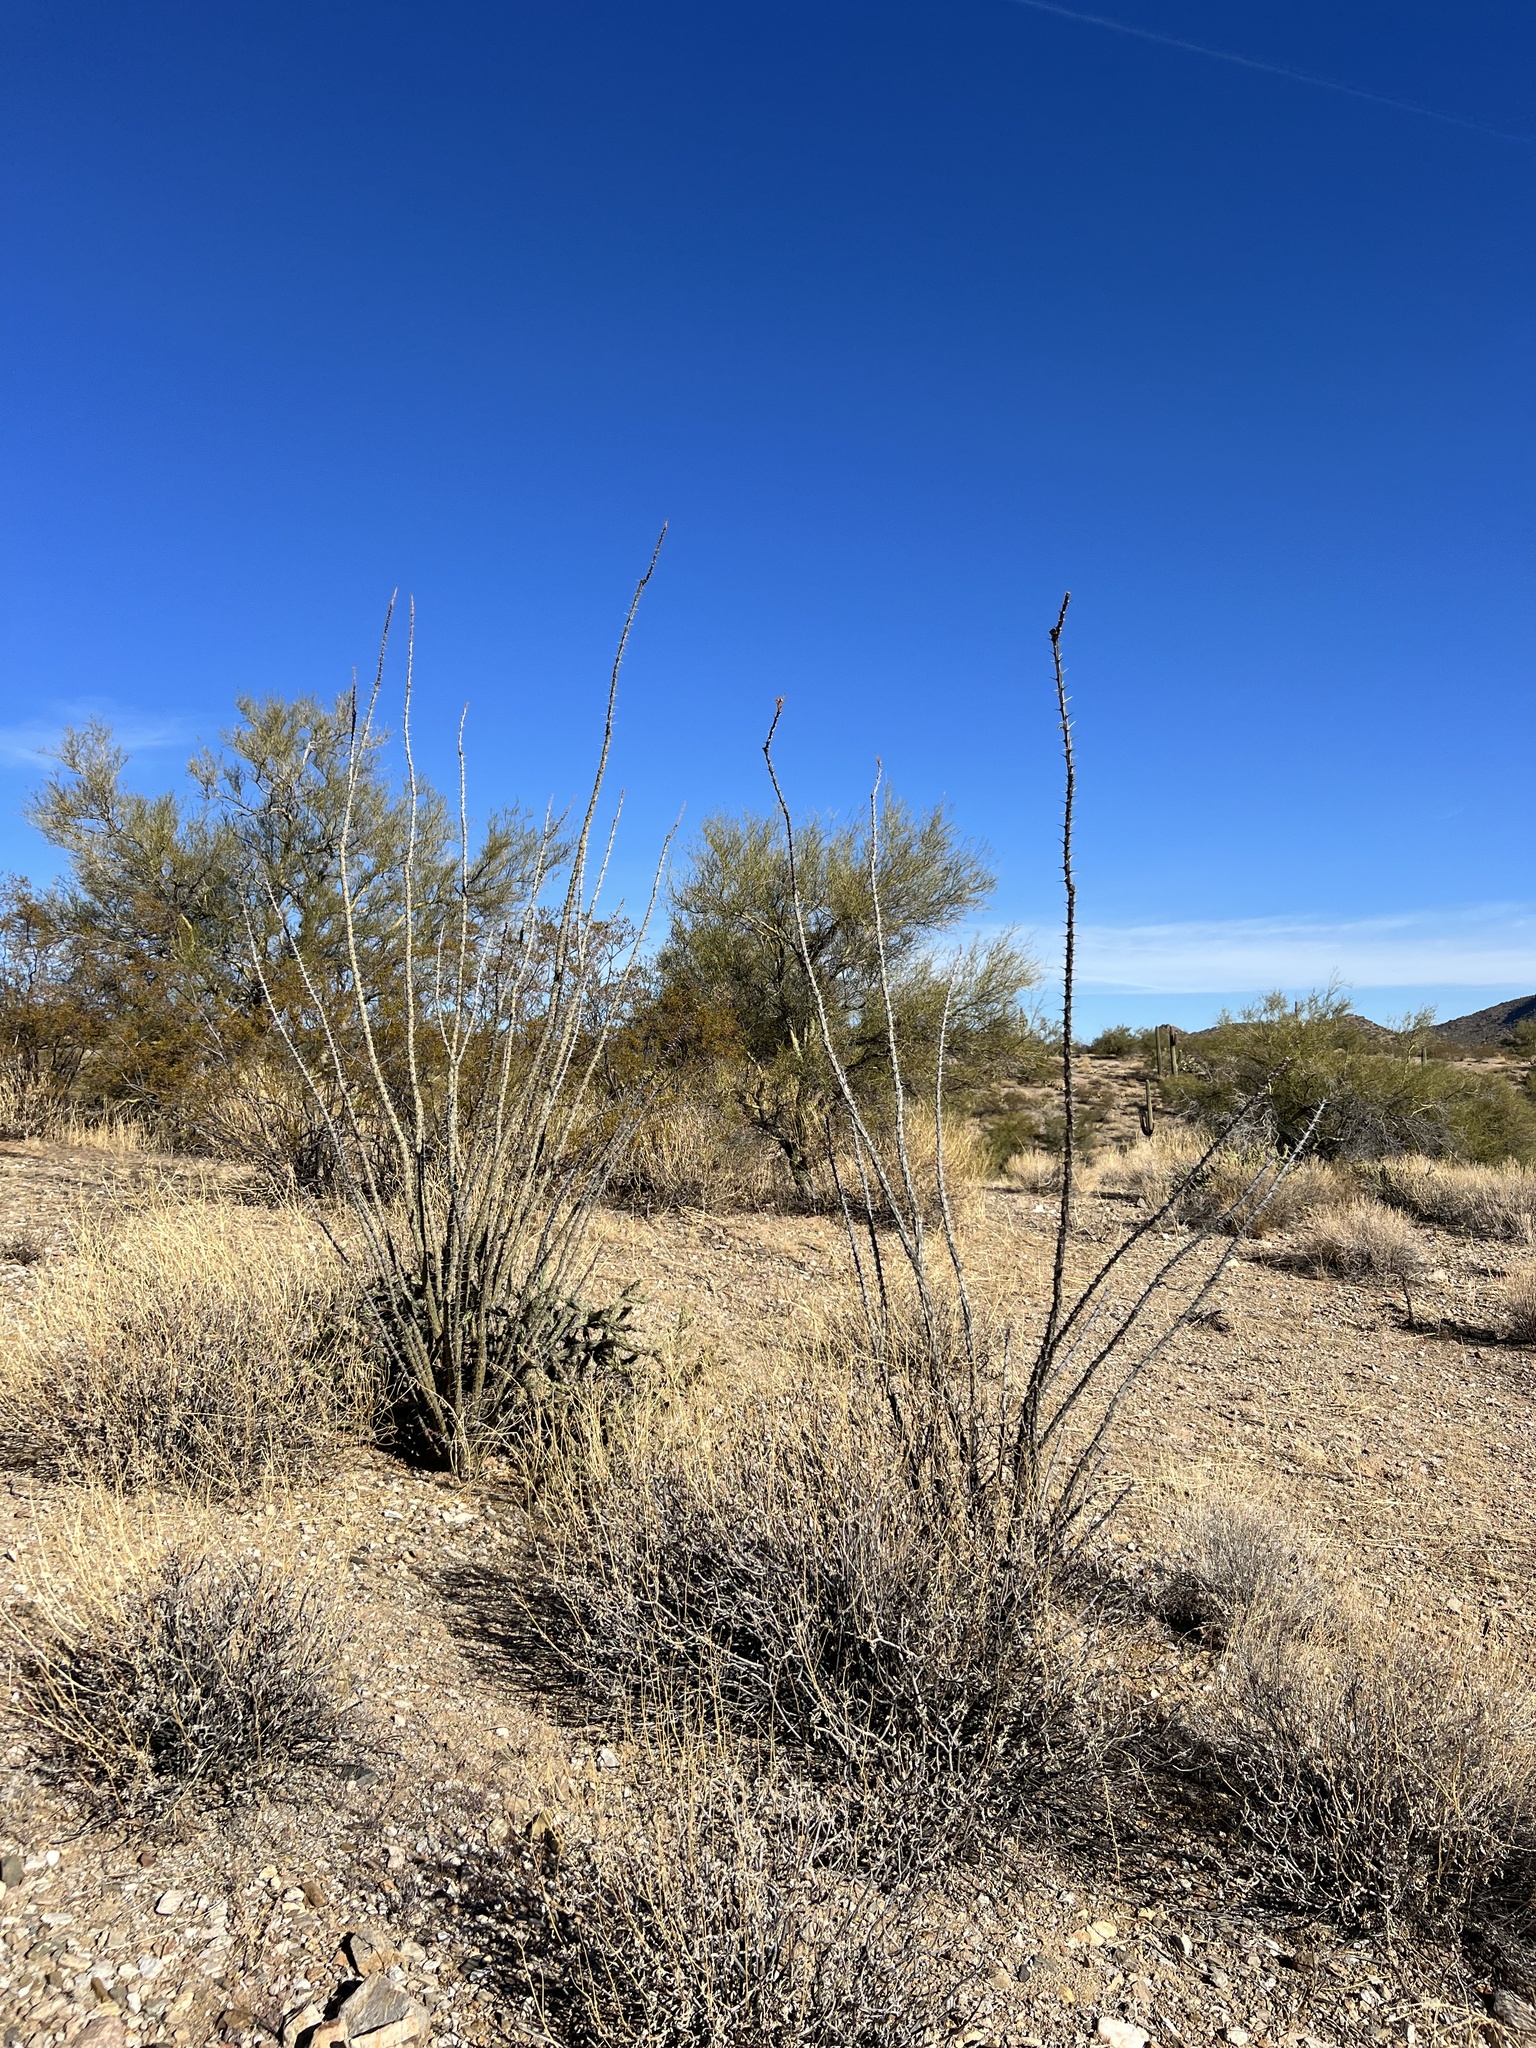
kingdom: Plantae
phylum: Tracheophyta
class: Magnoliopsida
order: Ericales
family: Fouquieriaceae
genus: Fouquieria
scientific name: Fouquieria splendens
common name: Vine-cactus
